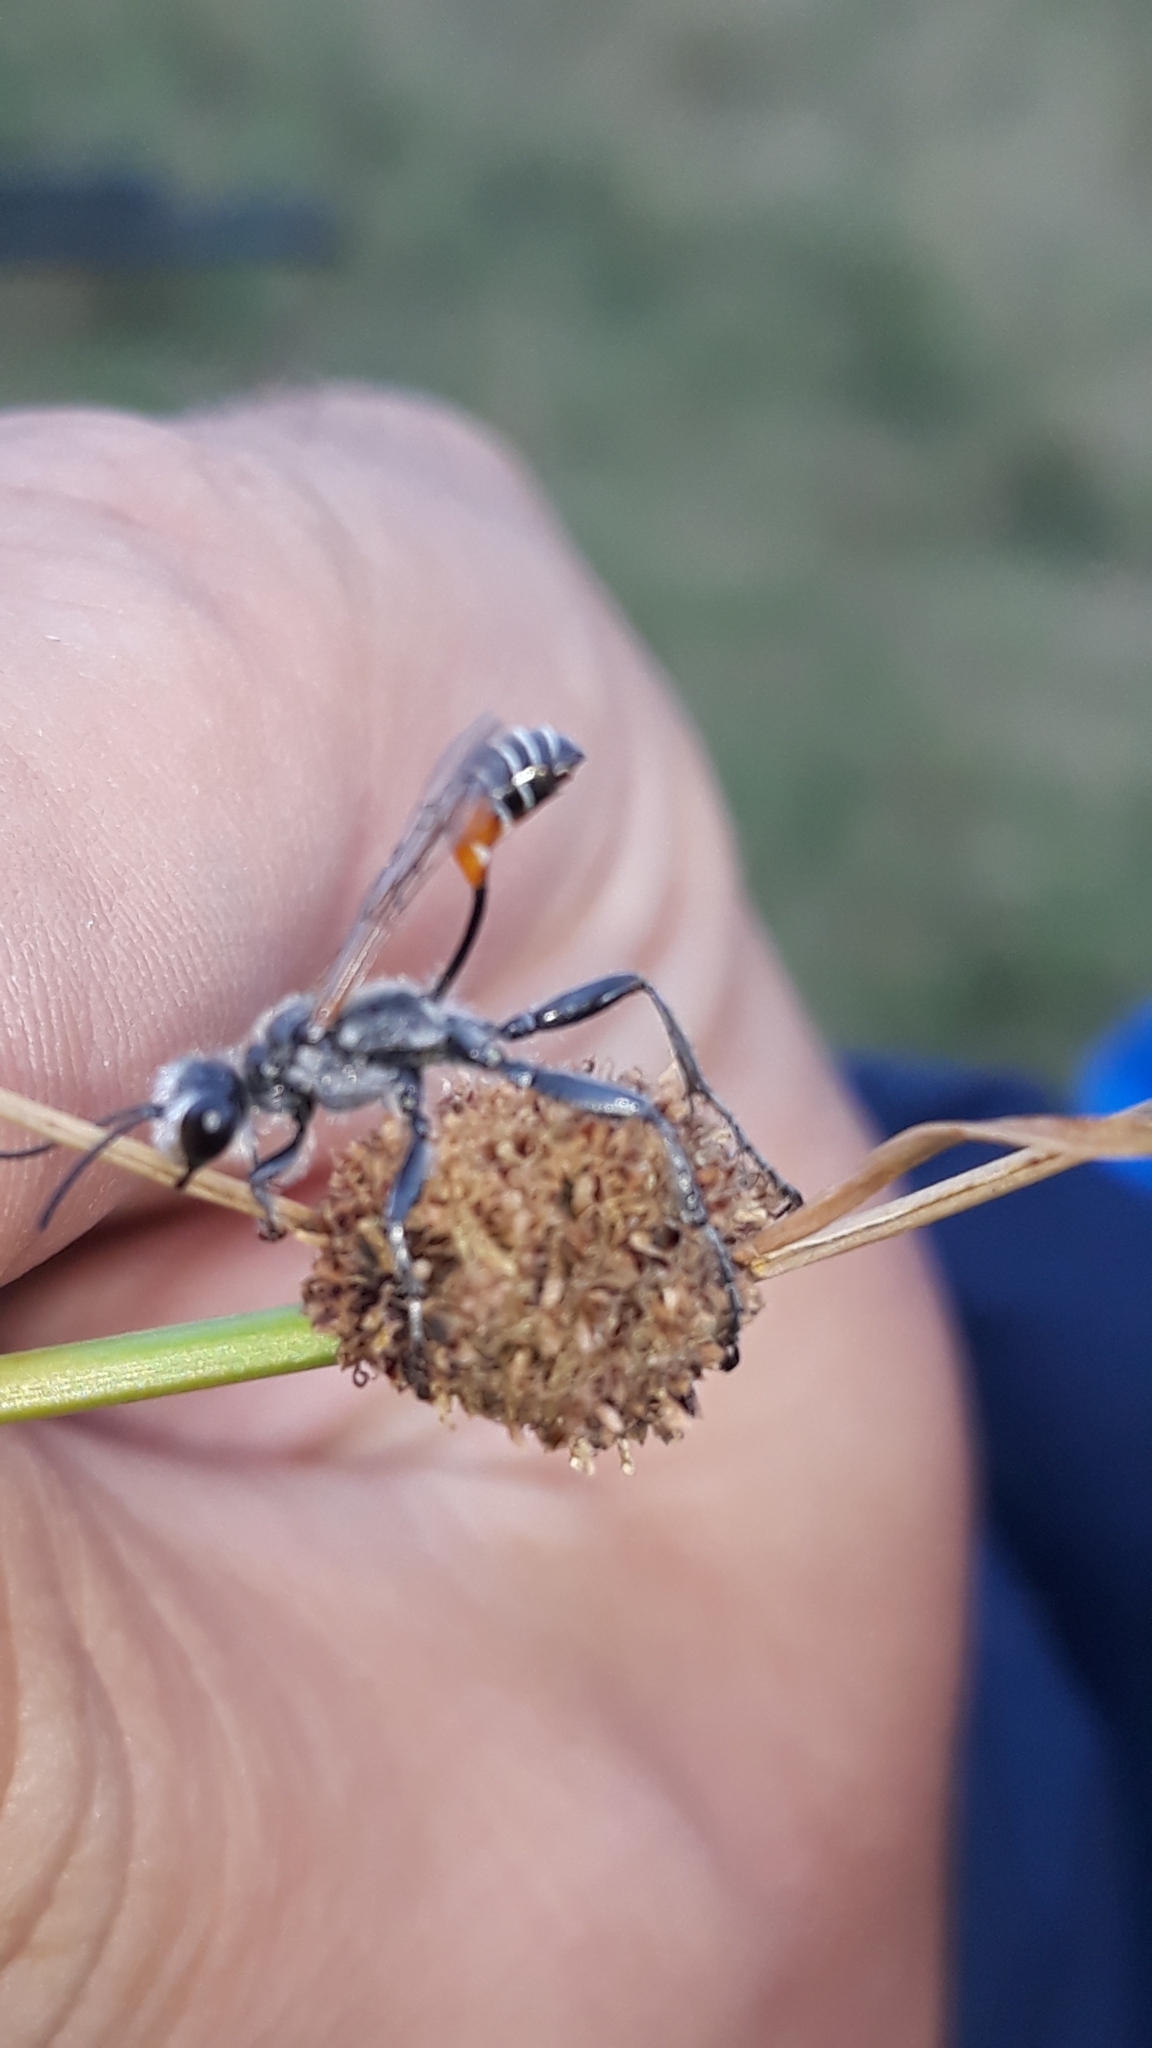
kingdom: Animalia
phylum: Arthropoda
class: Insecta
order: Hymenoptera
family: Sphecidae
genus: Prionyx
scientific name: Prionyx kirbii
